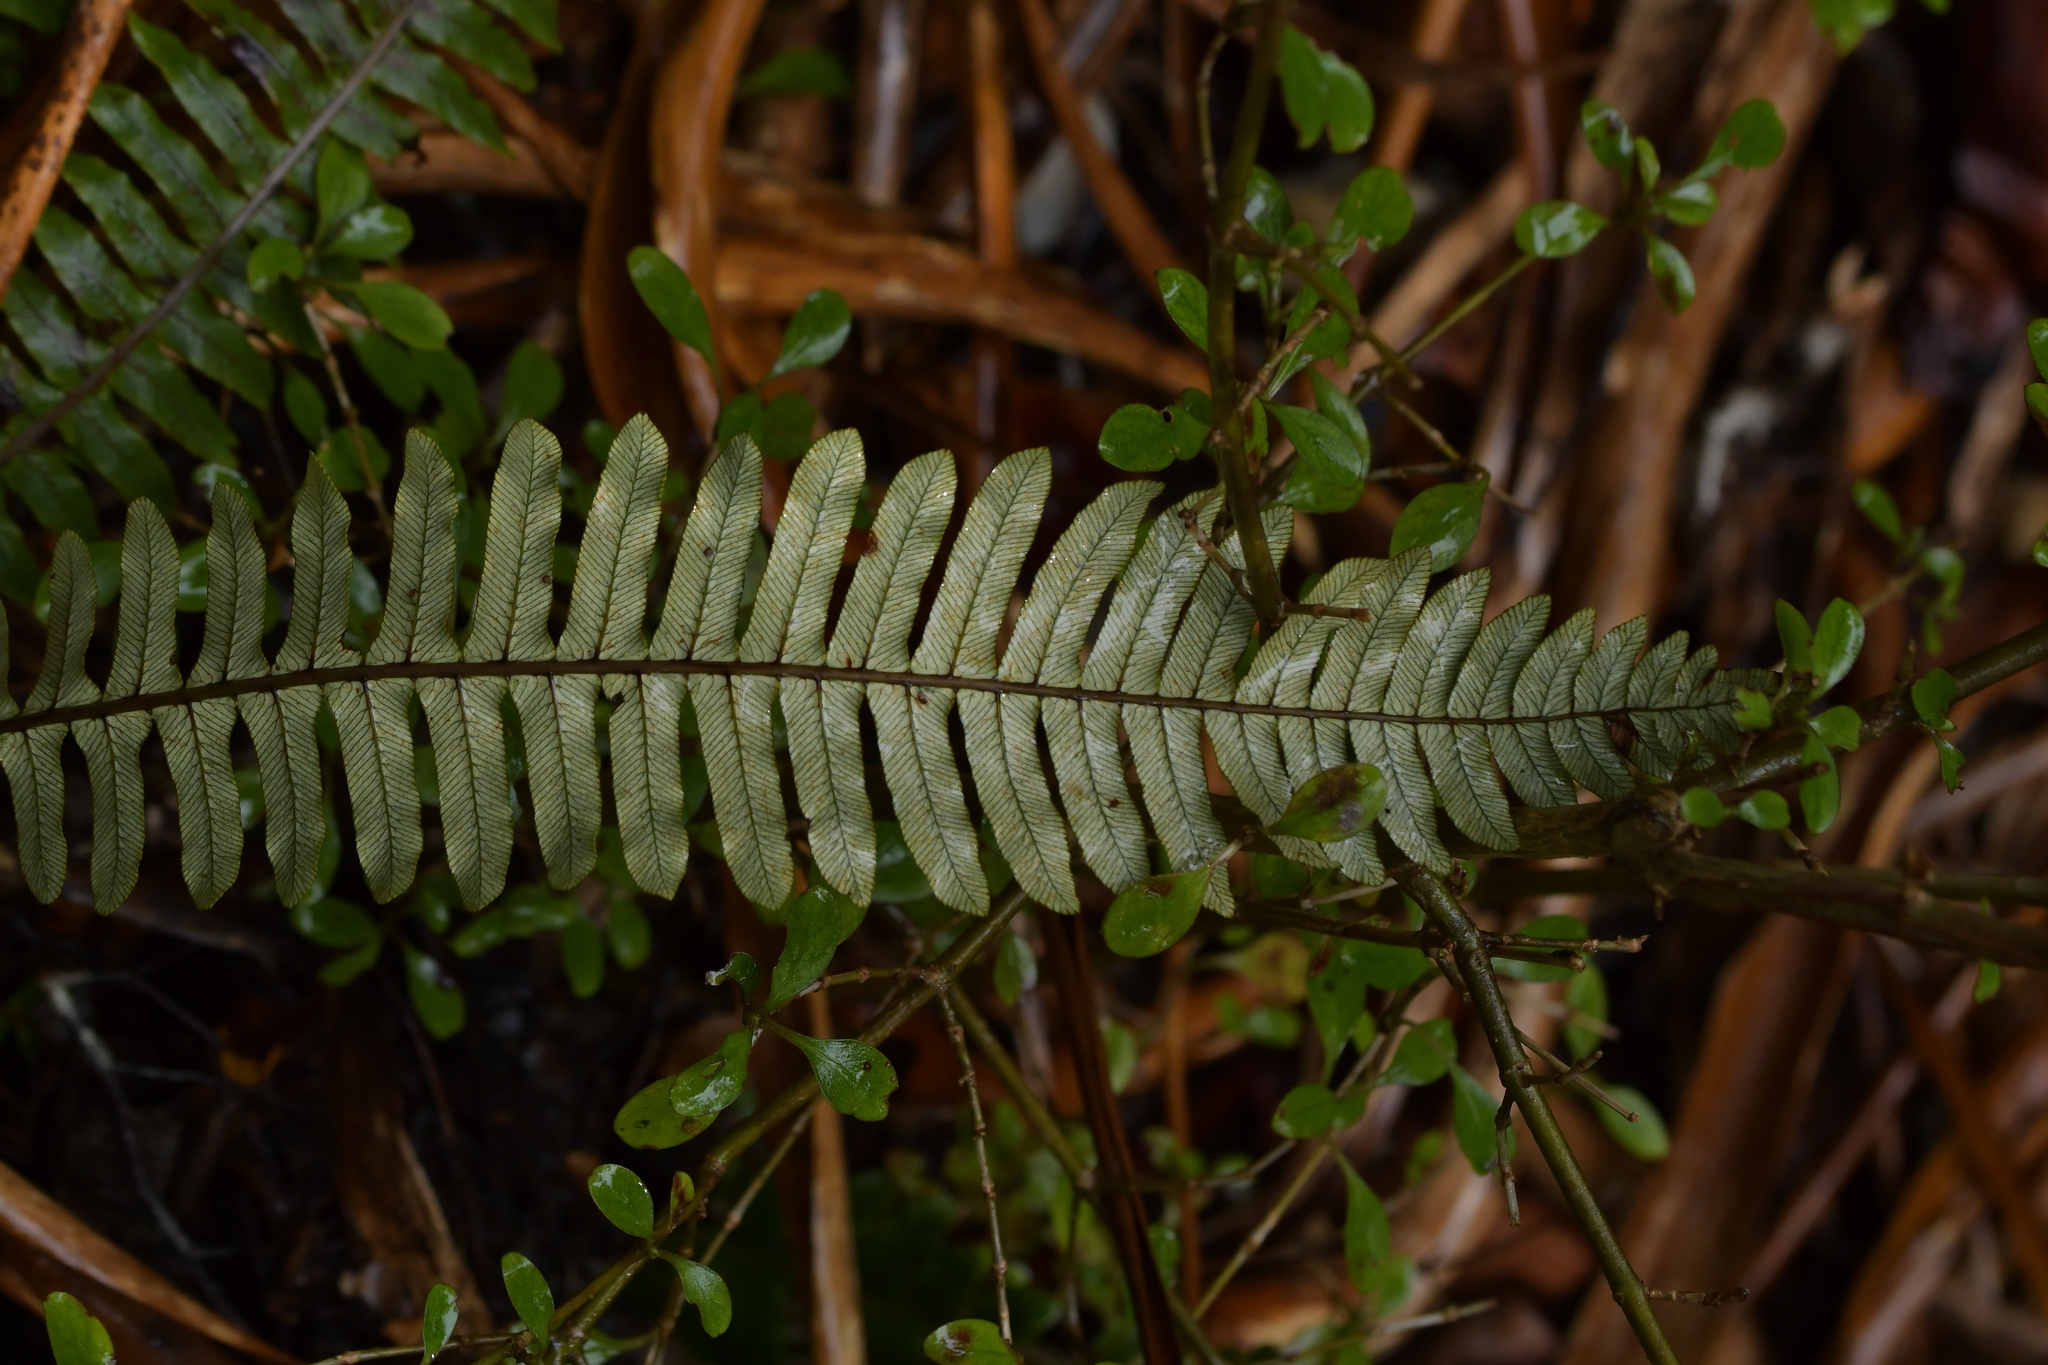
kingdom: Plantae
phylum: Tracheophyta
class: Polypodiopsida
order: Polypodiales
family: Blechnaceae
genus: Lomaria
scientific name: Lomaria discolor
